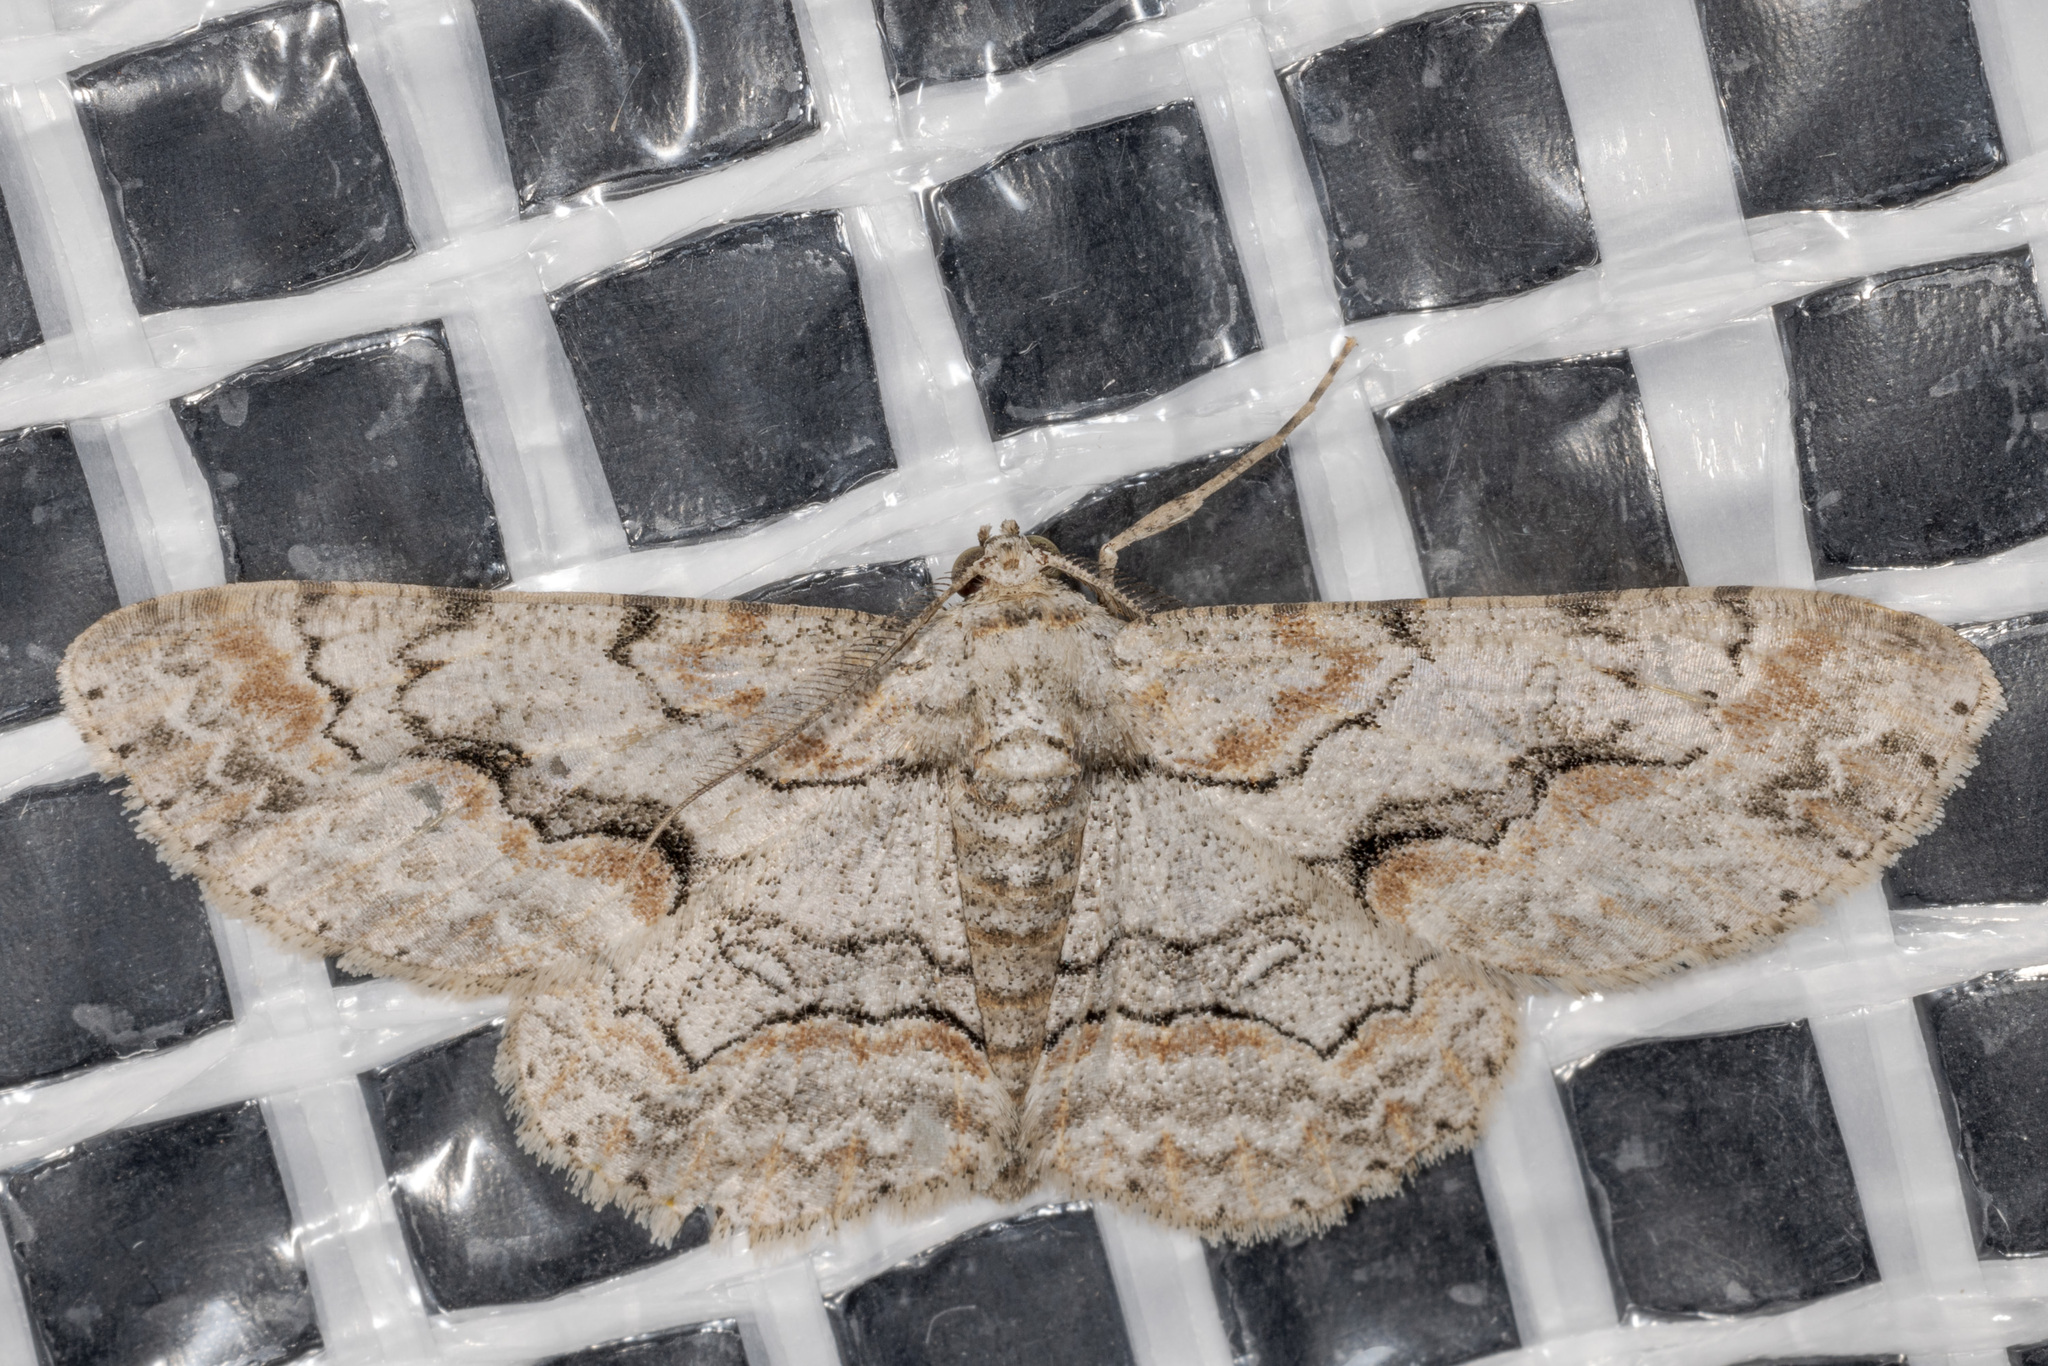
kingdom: Animalia
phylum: Arthropoda
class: Insecta
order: Lepidoptera
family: Geometridae
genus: Iridopsis
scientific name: Iridopsis defectaria
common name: Brown-shaded gray
